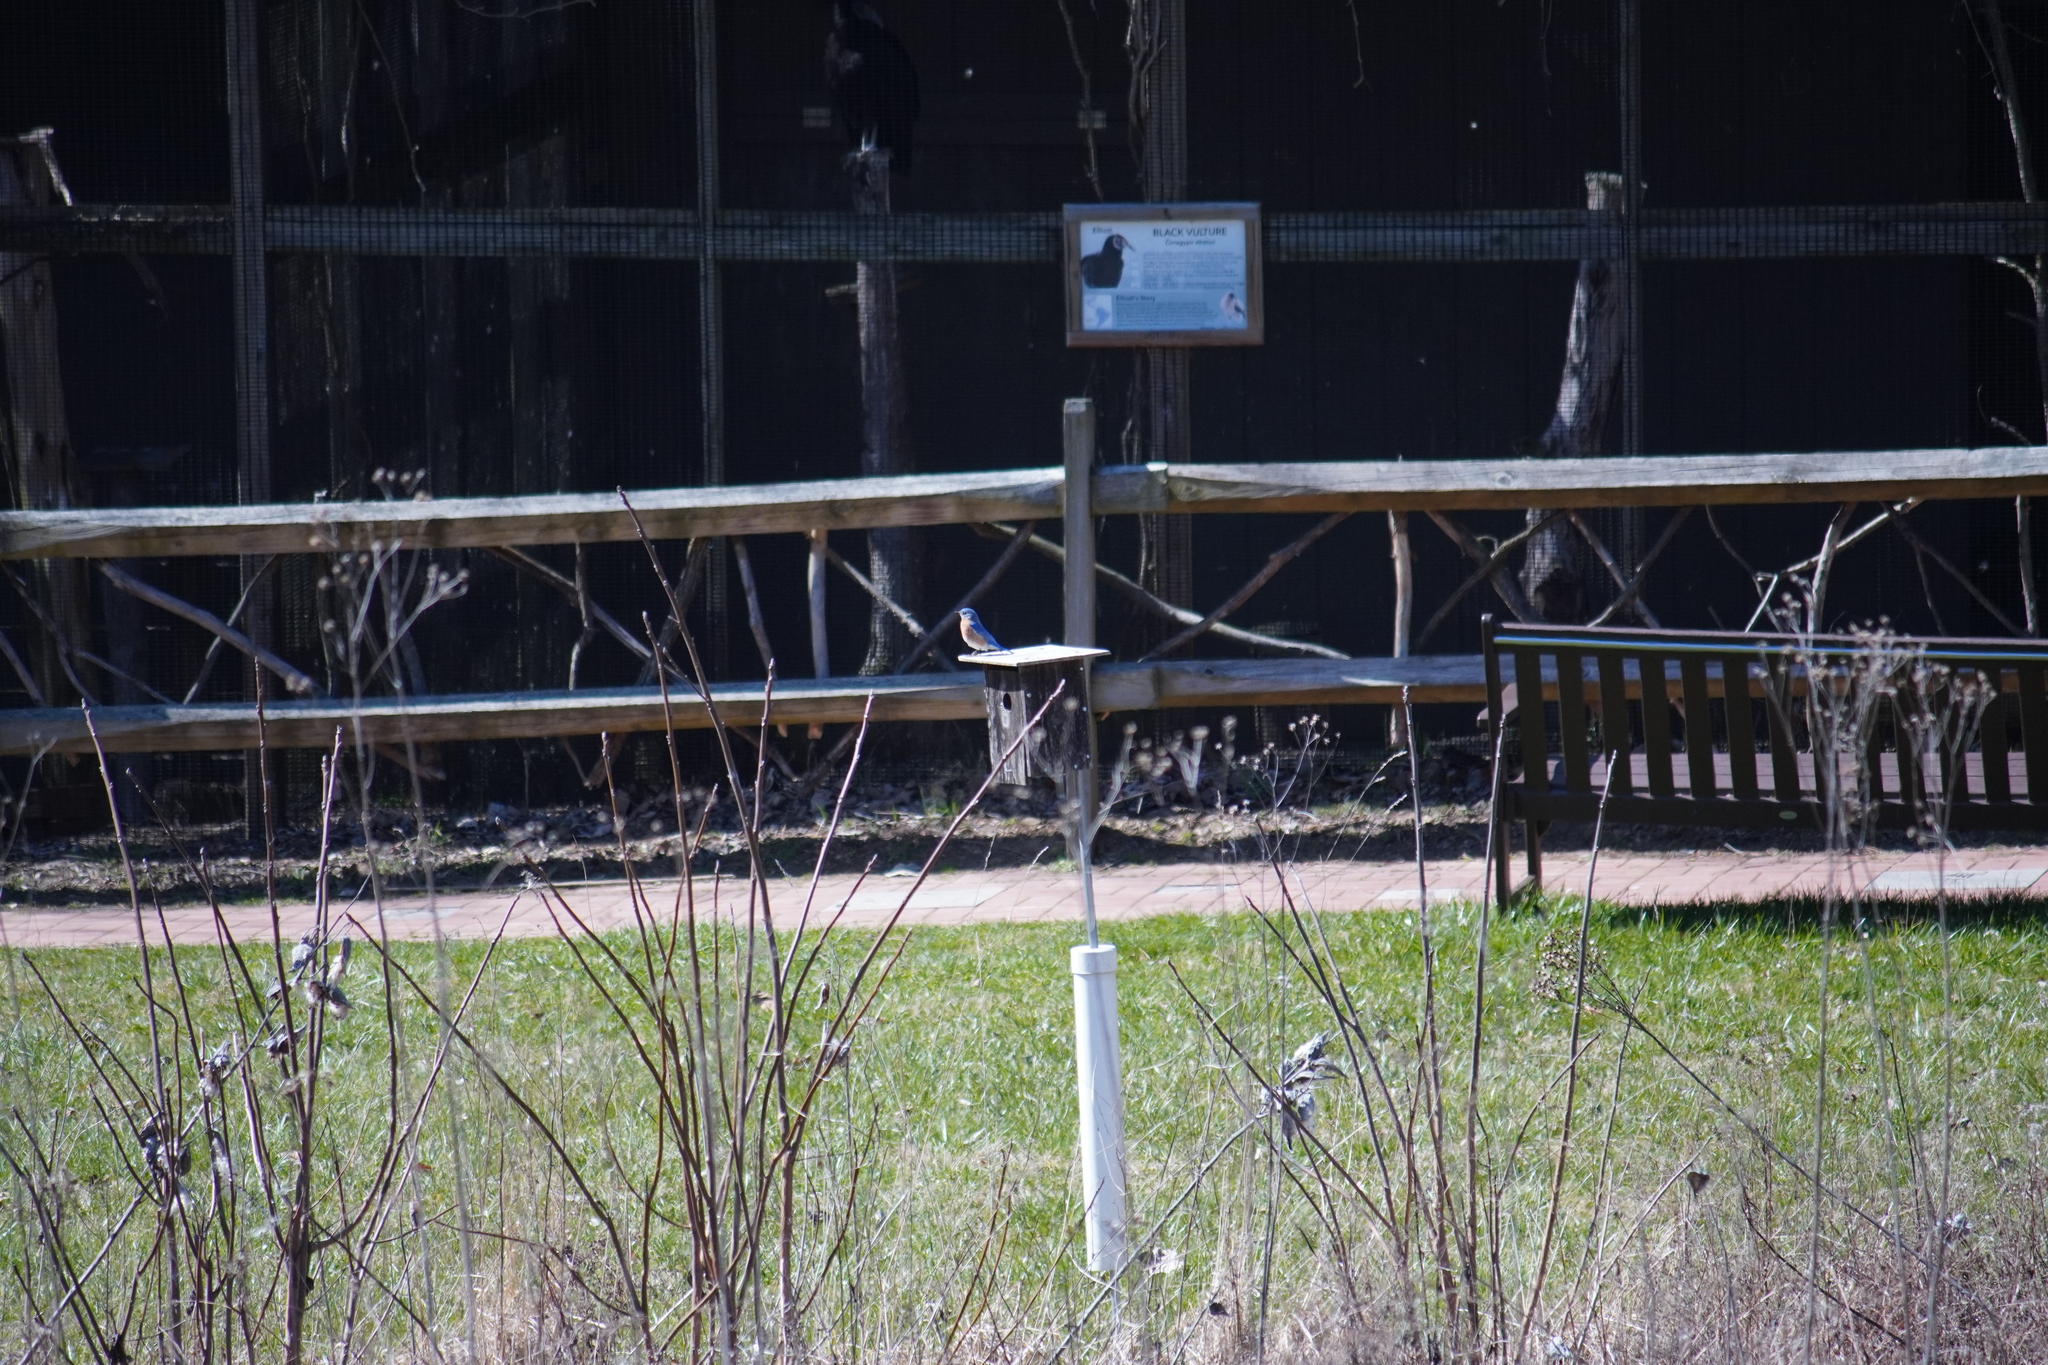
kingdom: Animalia
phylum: Chordata
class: Aves
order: Passeriformes
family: Turdidae
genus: Sialia
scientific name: Sialia sialis
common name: Eastern bluebird
